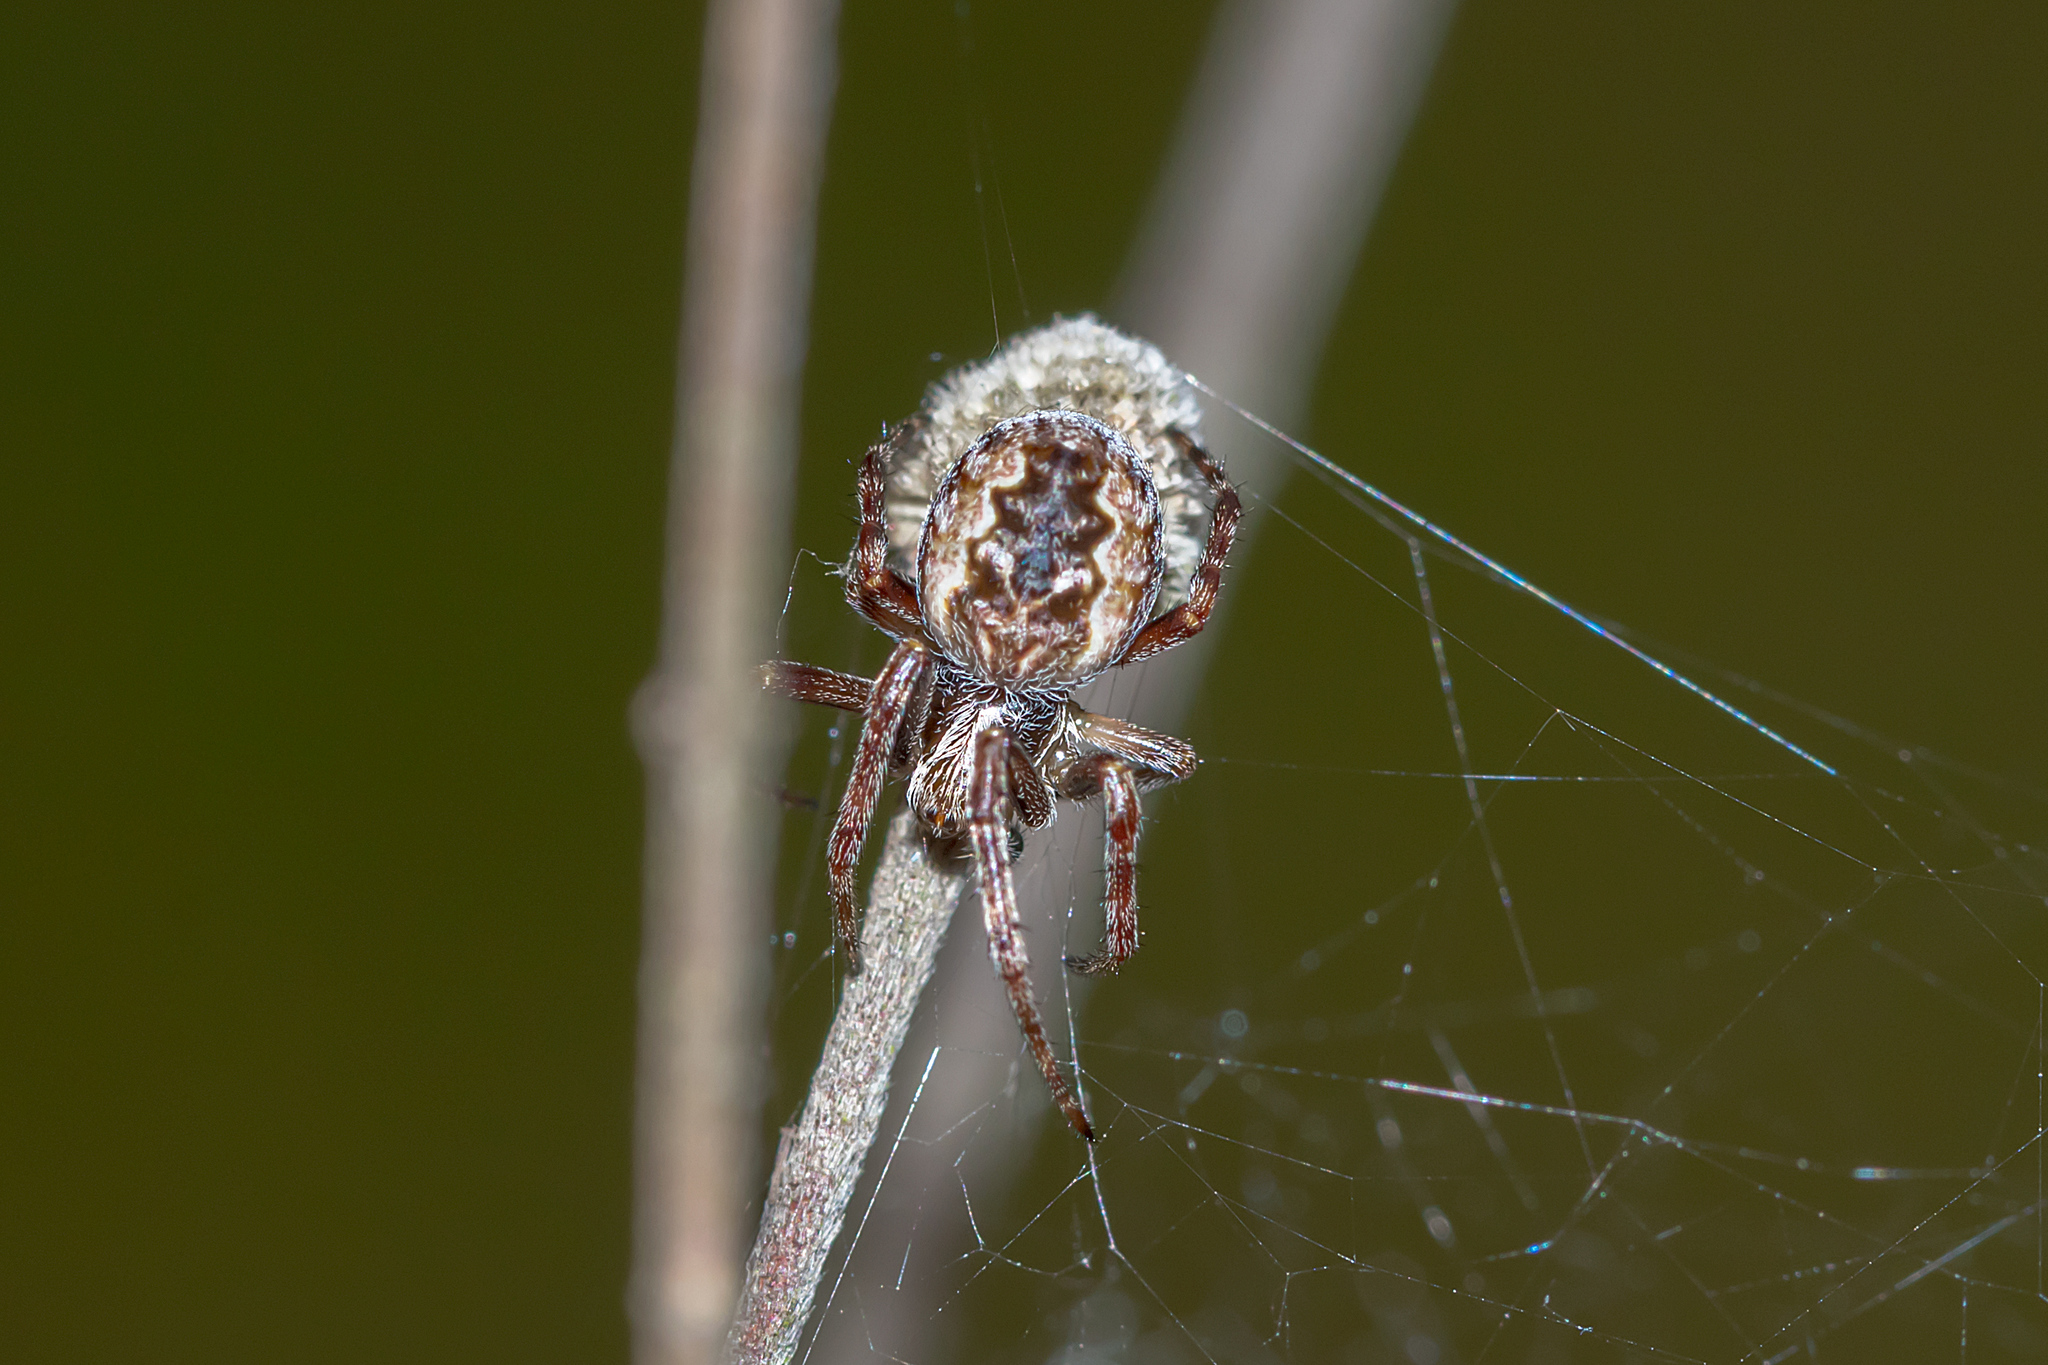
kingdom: Animalia
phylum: Arthropoda
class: Arachnida
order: Araneae
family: Araneidae
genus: Salsa
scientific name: Salsa fuliginata
